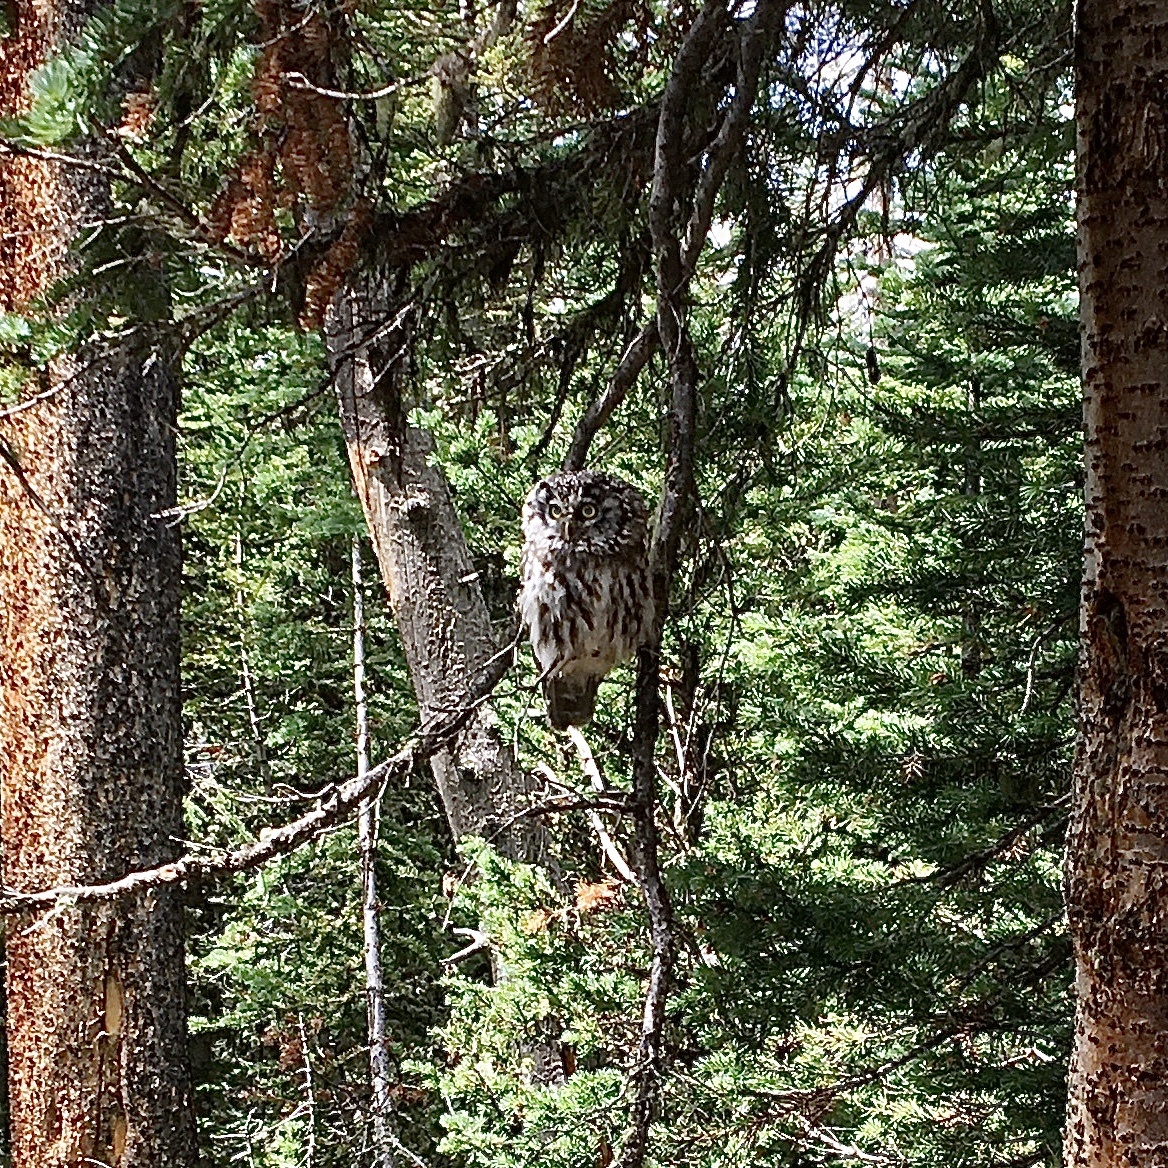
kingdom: Animalia
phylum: Chordata
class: Aves
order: Strigiformes
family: Strigidae
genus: Aegolius
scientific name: Aegolius funereus
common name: Boreal owl
